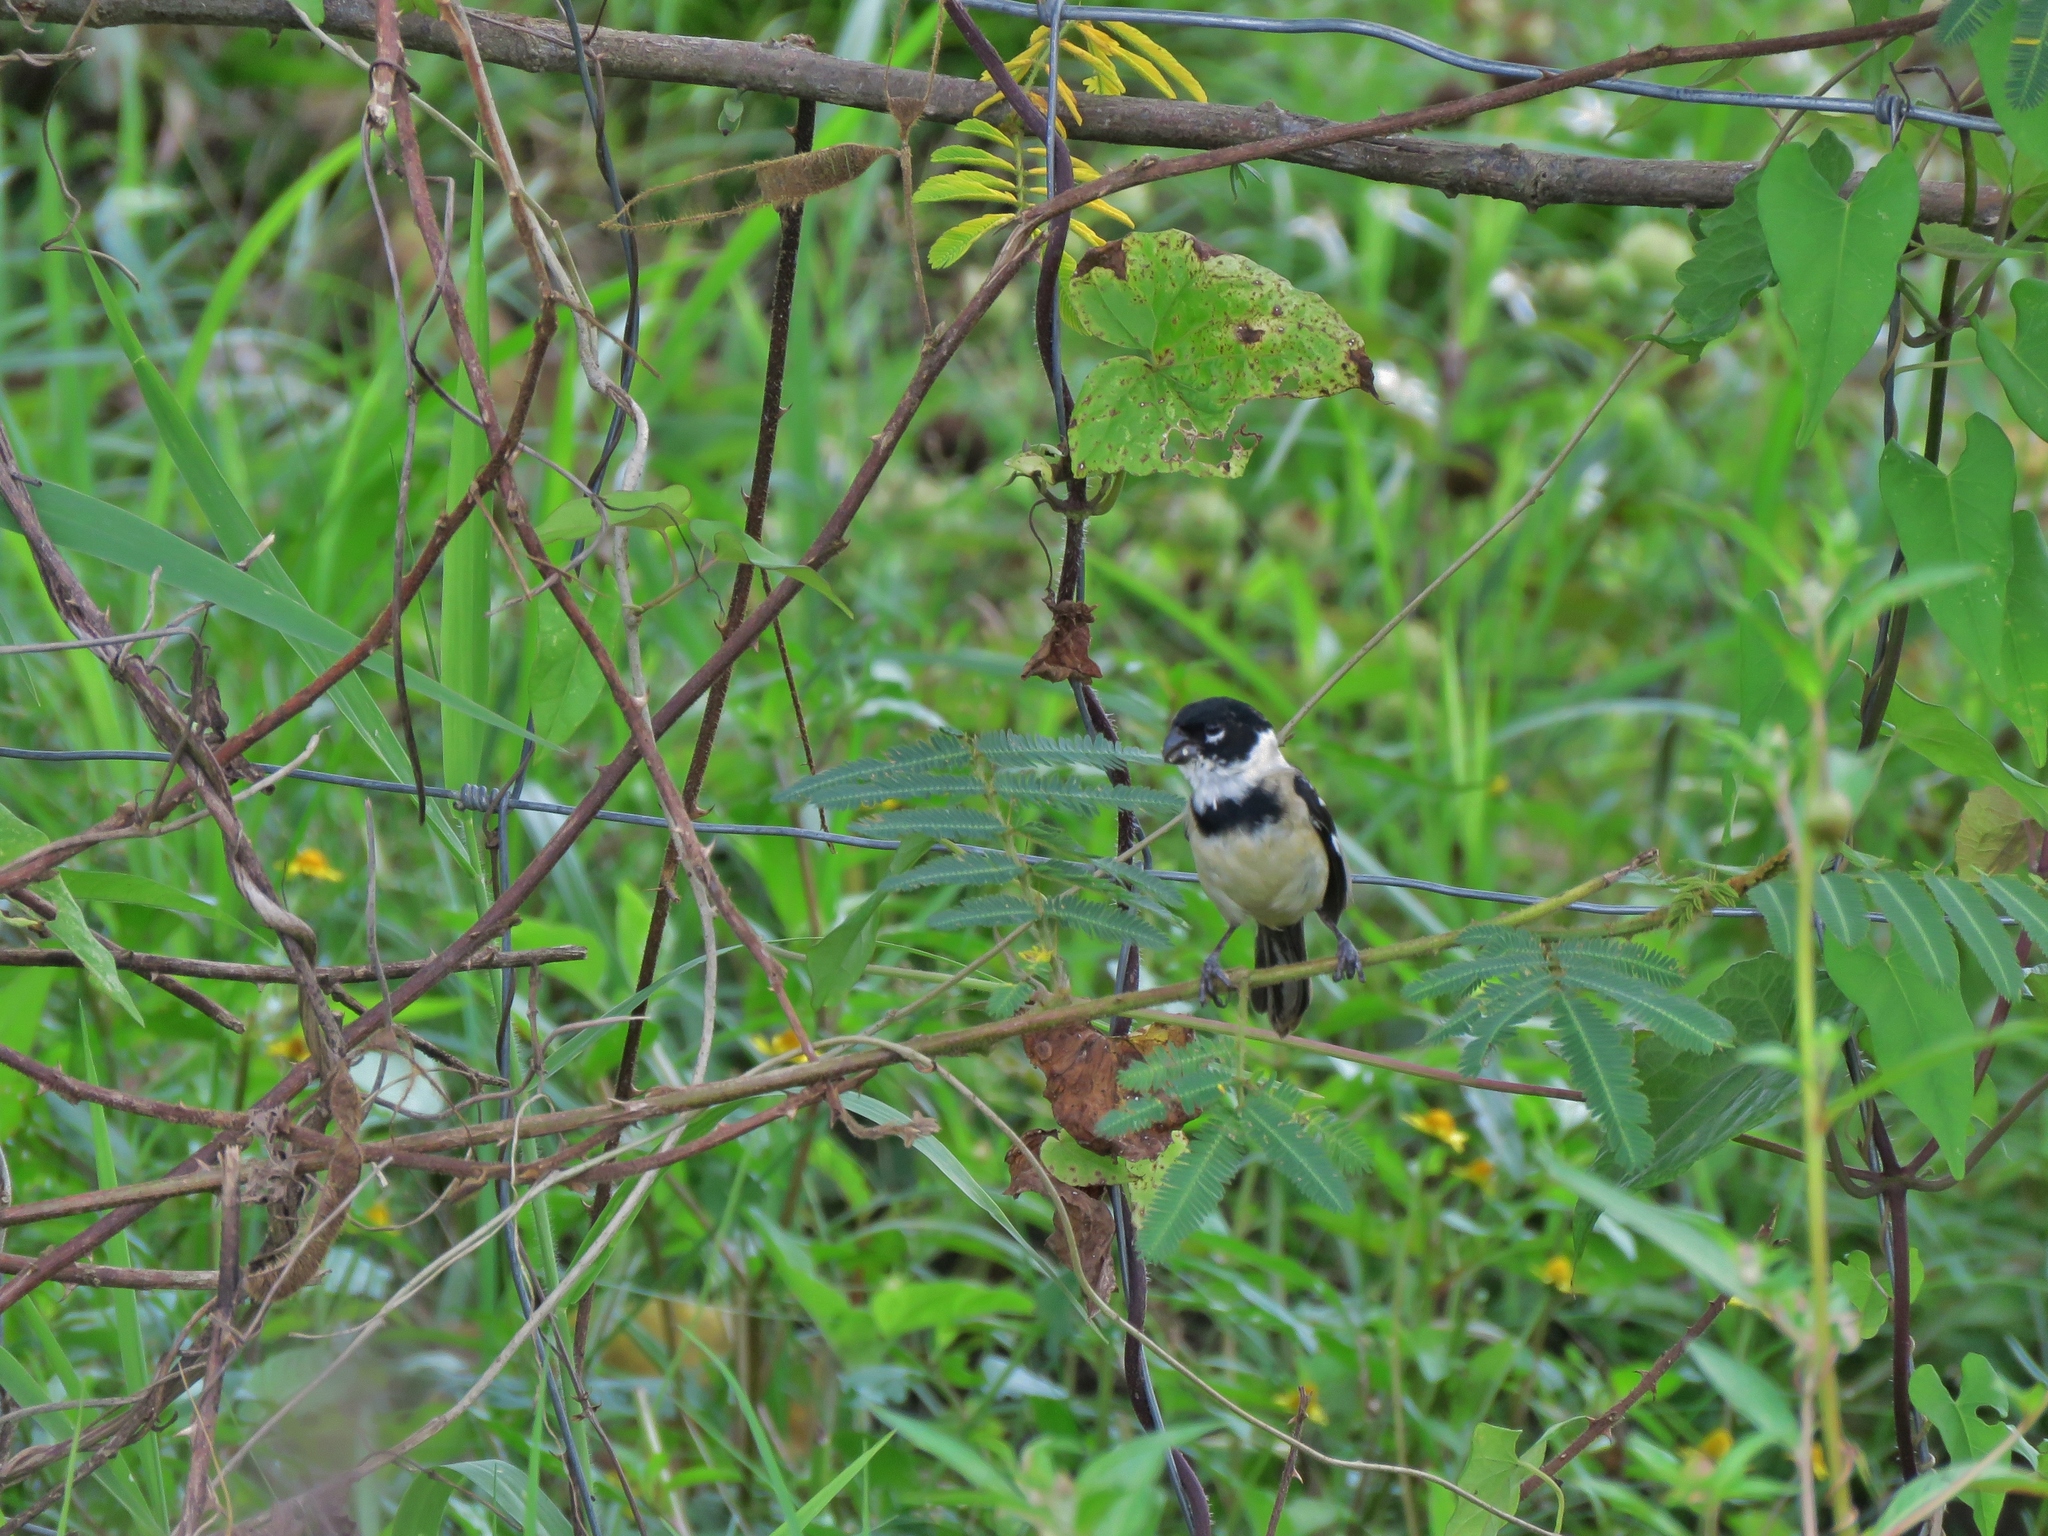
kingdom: Animalia
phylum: Chordata
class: Aves
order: Passeriformes
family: Thraupidae
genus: Sporophila
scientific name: Sporophila morelleti
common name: Morelet's seedeater
